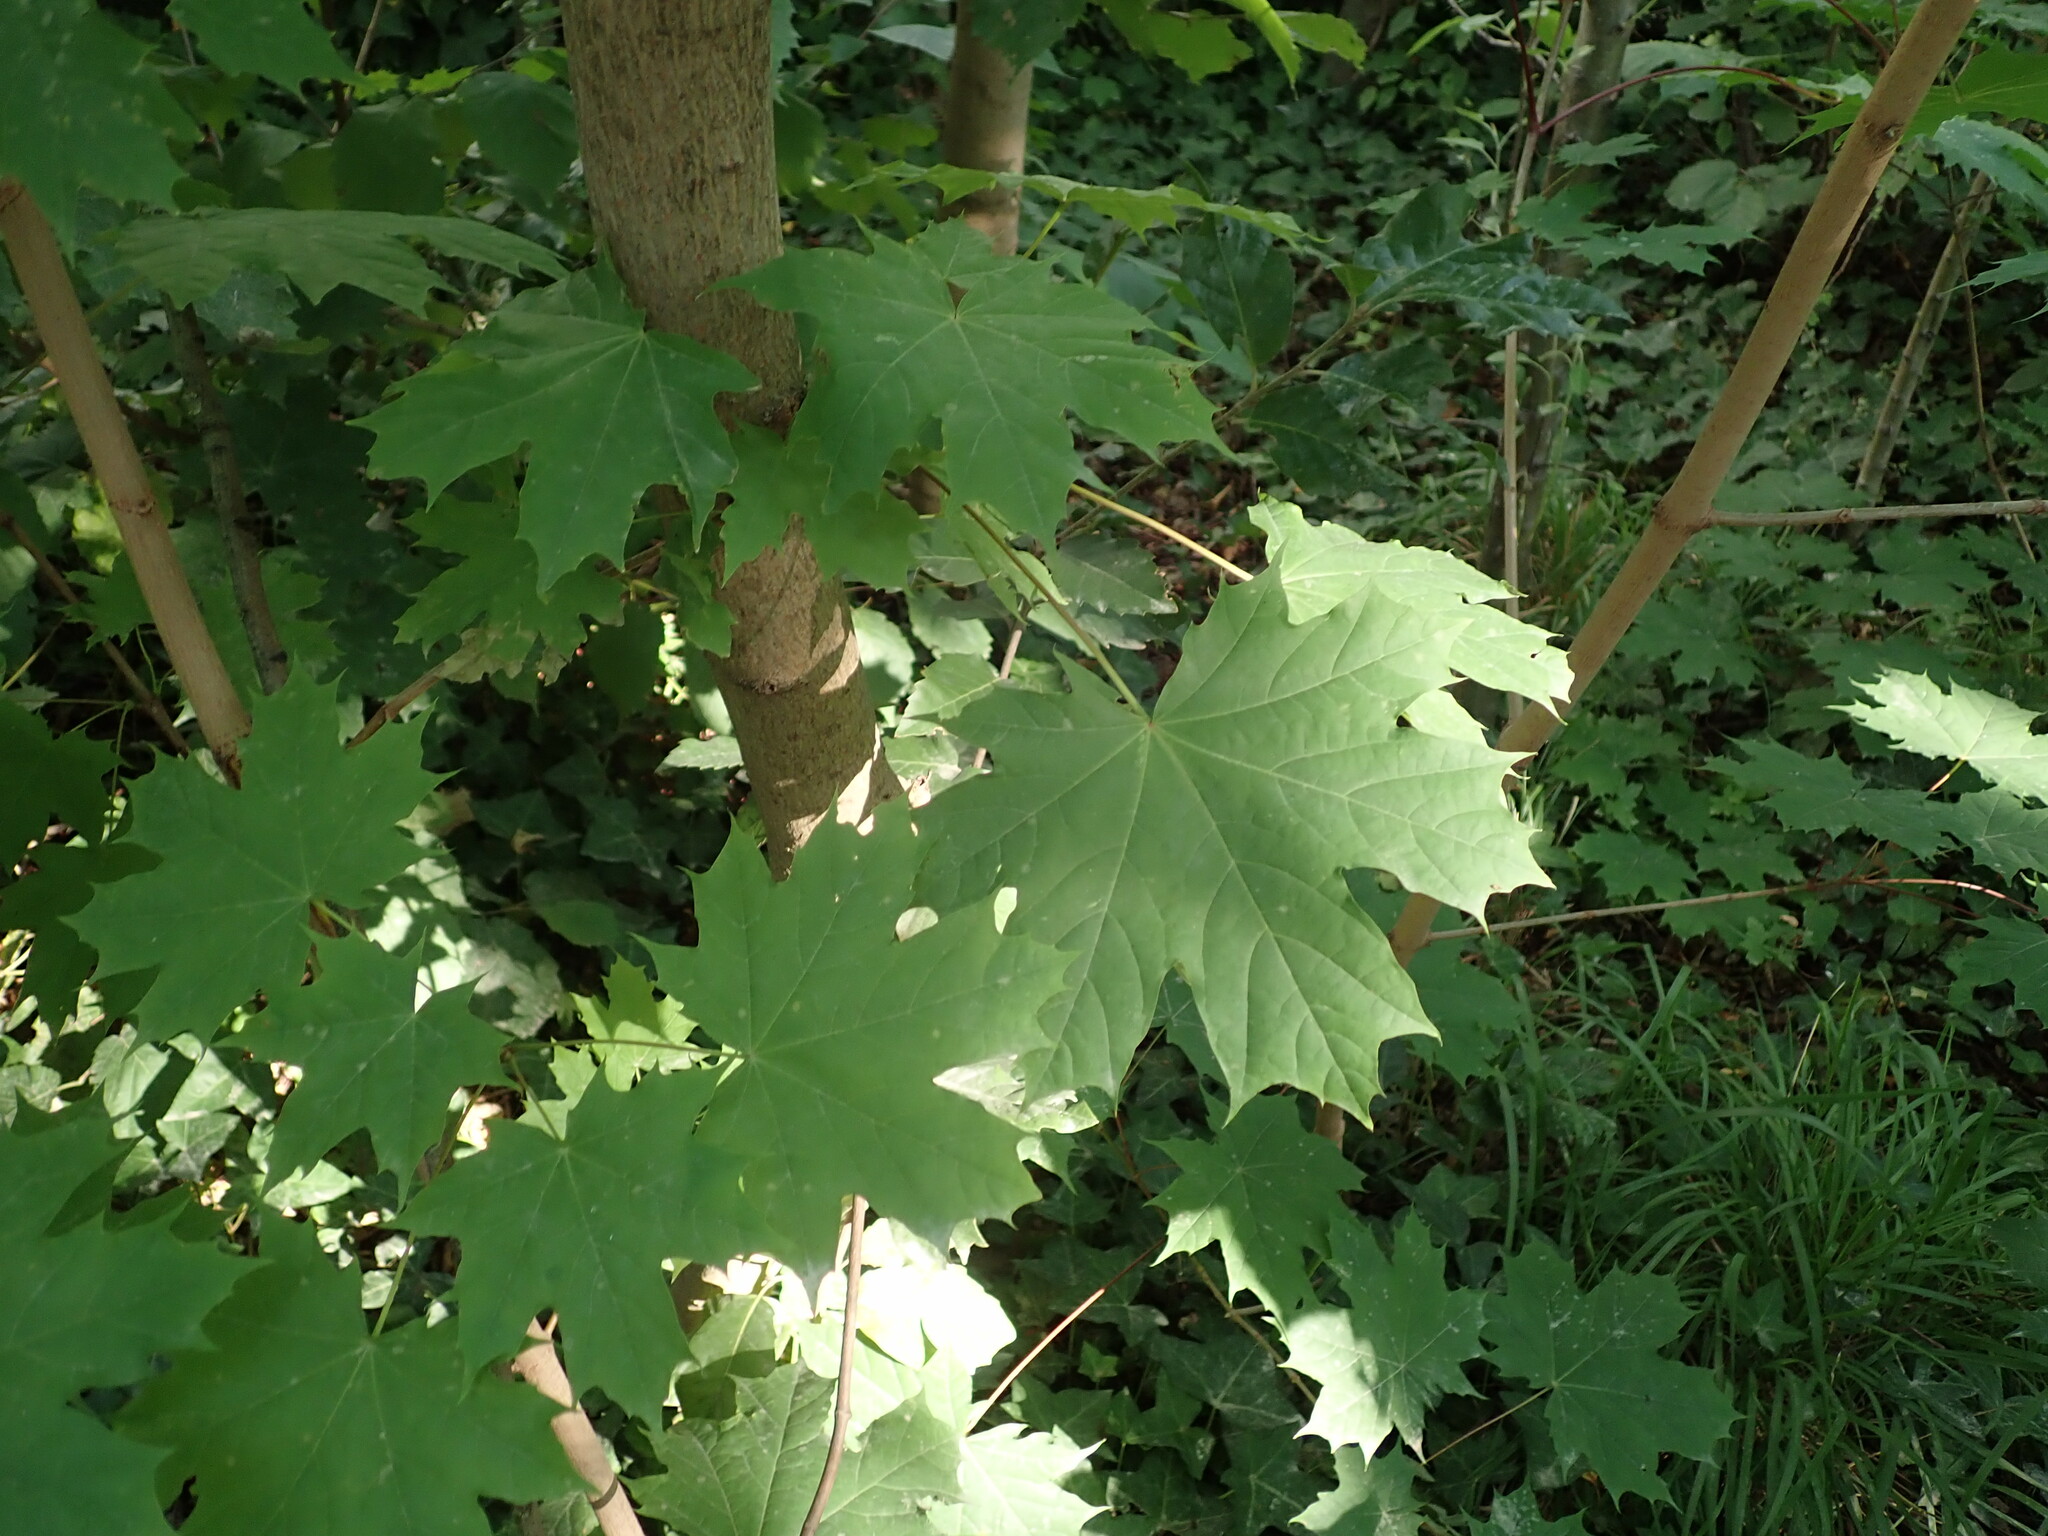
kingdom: Plantae
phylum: Tracheophyta
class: Magnoliopsida
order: Sapindales
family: Sapindaceae
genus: Acer
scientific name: Acer platanoides
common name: Norway maple
